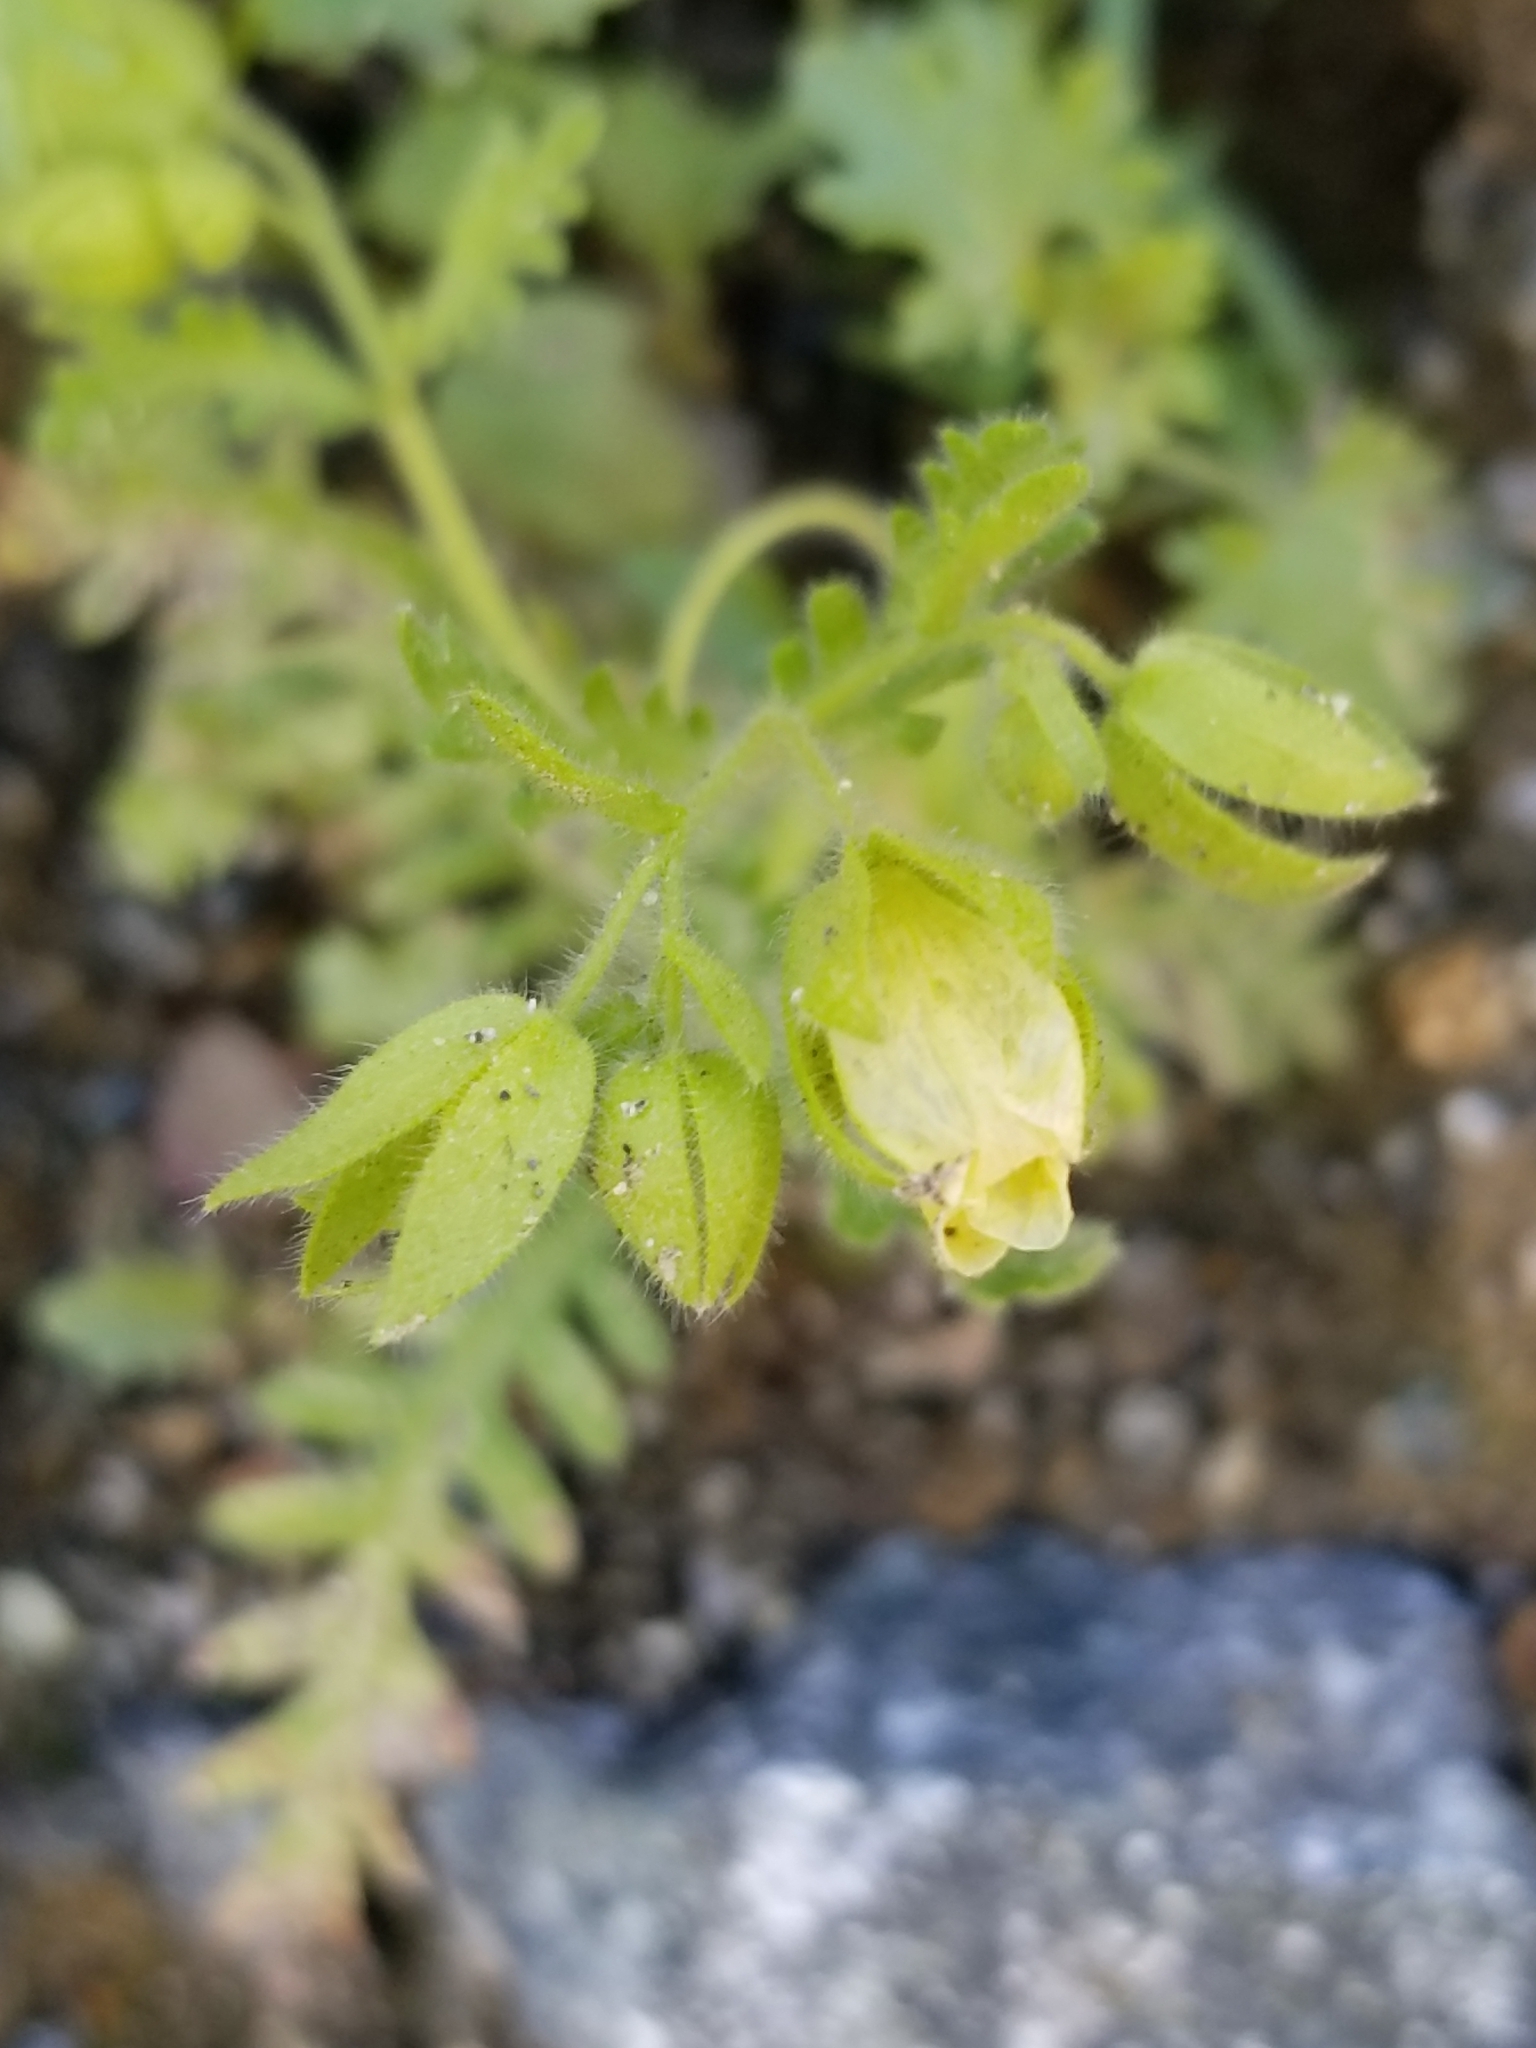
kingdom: Plantae
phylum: Tracheophyta
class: Magnoliopsida
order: Boraginales
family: Hydrophyllaceae
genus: Emmenanthe
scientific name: Emmenanthe penduliflora
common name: Whispering-bells
